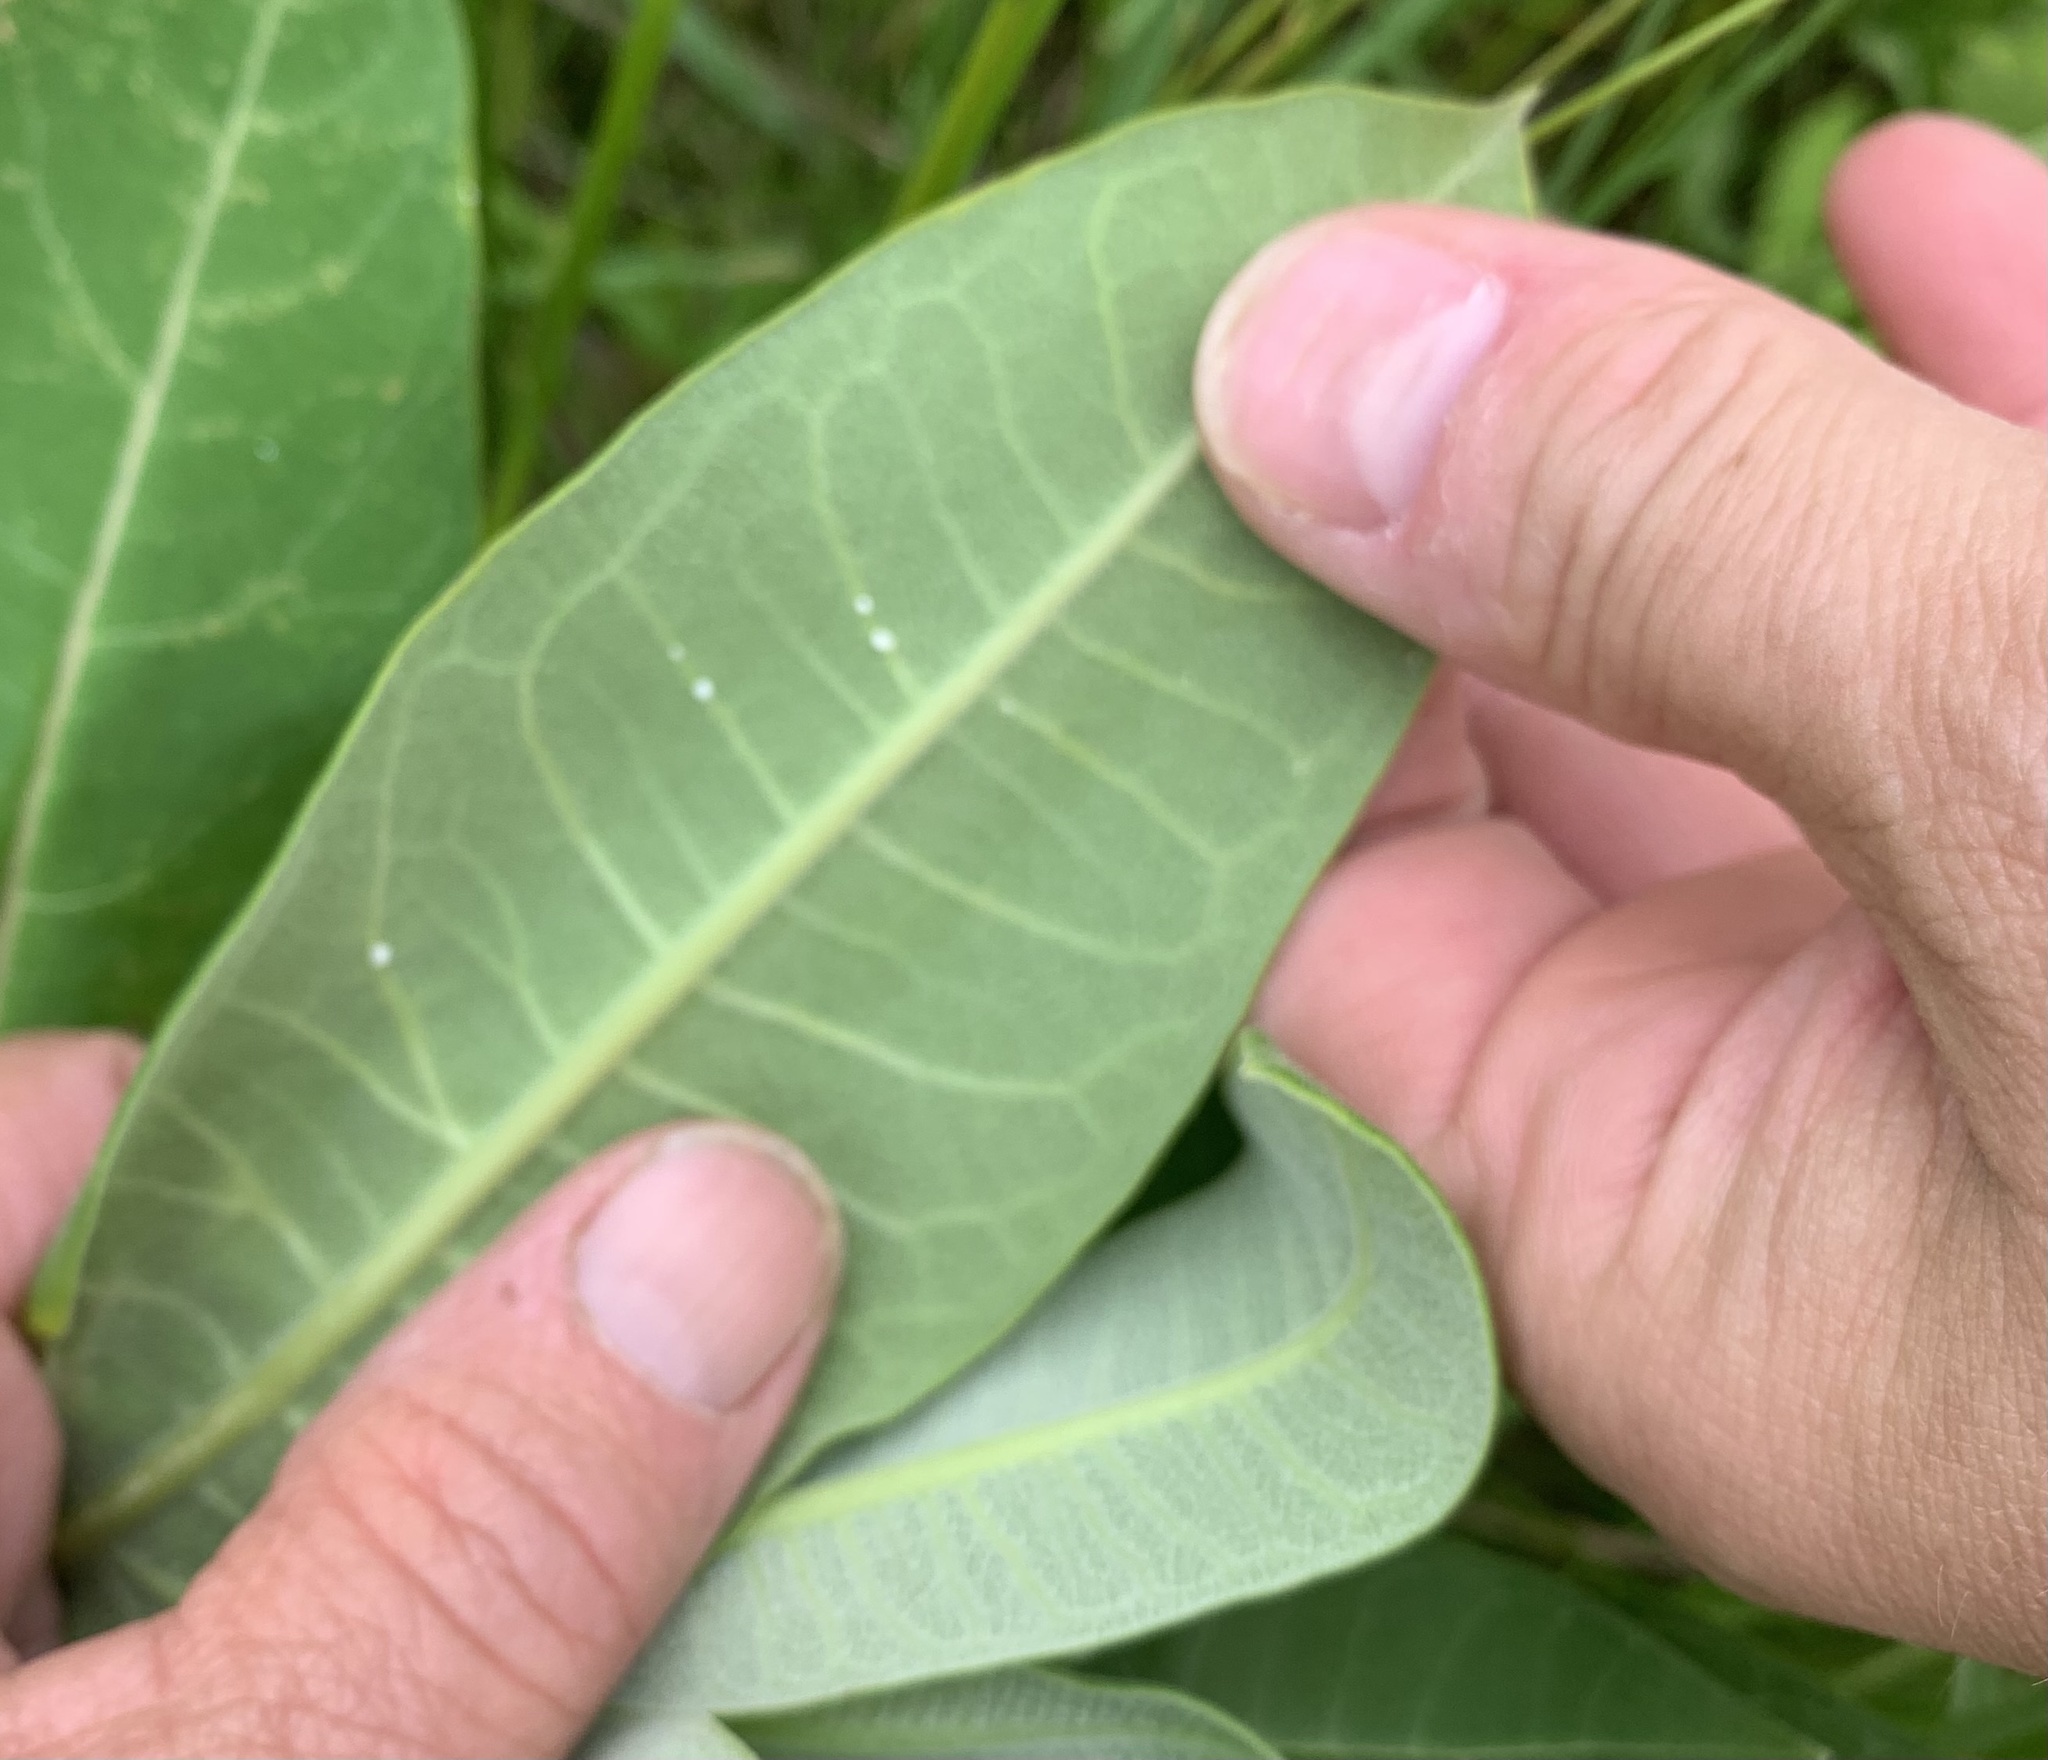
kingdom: Plantae
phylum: Tracheophyta
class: Magnoliopsida
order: Gentianales
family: Apocynaceae
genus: Asclepias
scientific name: Asclepias syriaca
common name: Common milkweed
